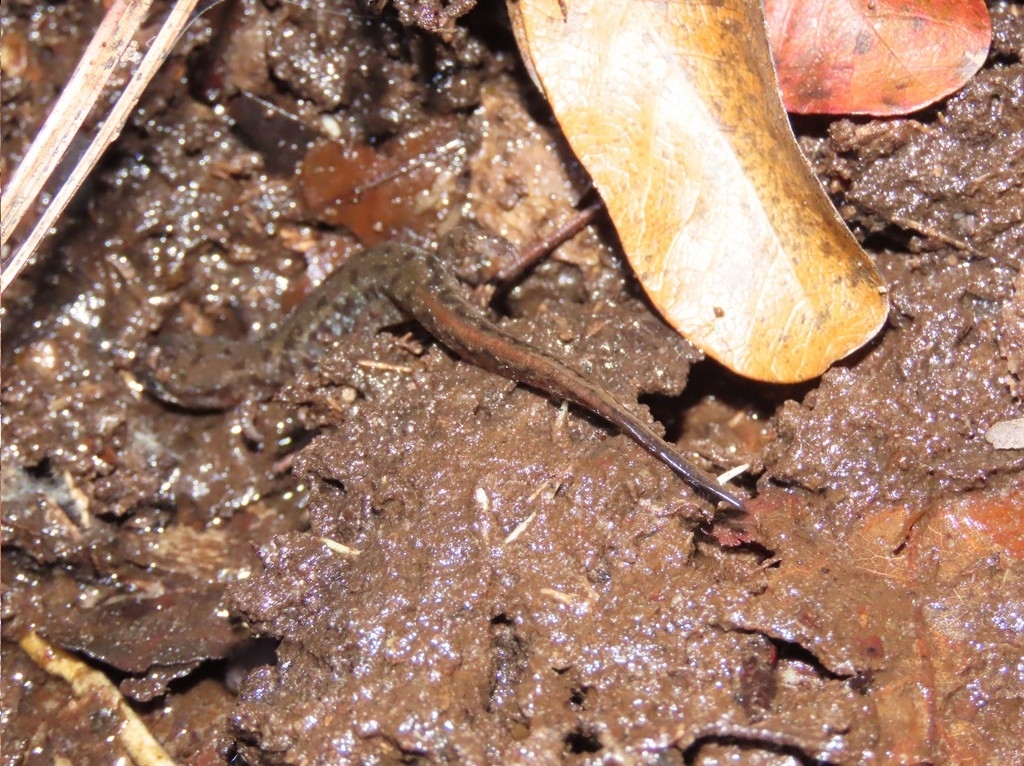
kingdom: Animalia
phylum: Chordata
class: Amphibia
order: Caudata
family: Plethodontidae
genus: Desmognathus
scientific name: Desmognathus fuscus
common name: Northern dusky salamander
